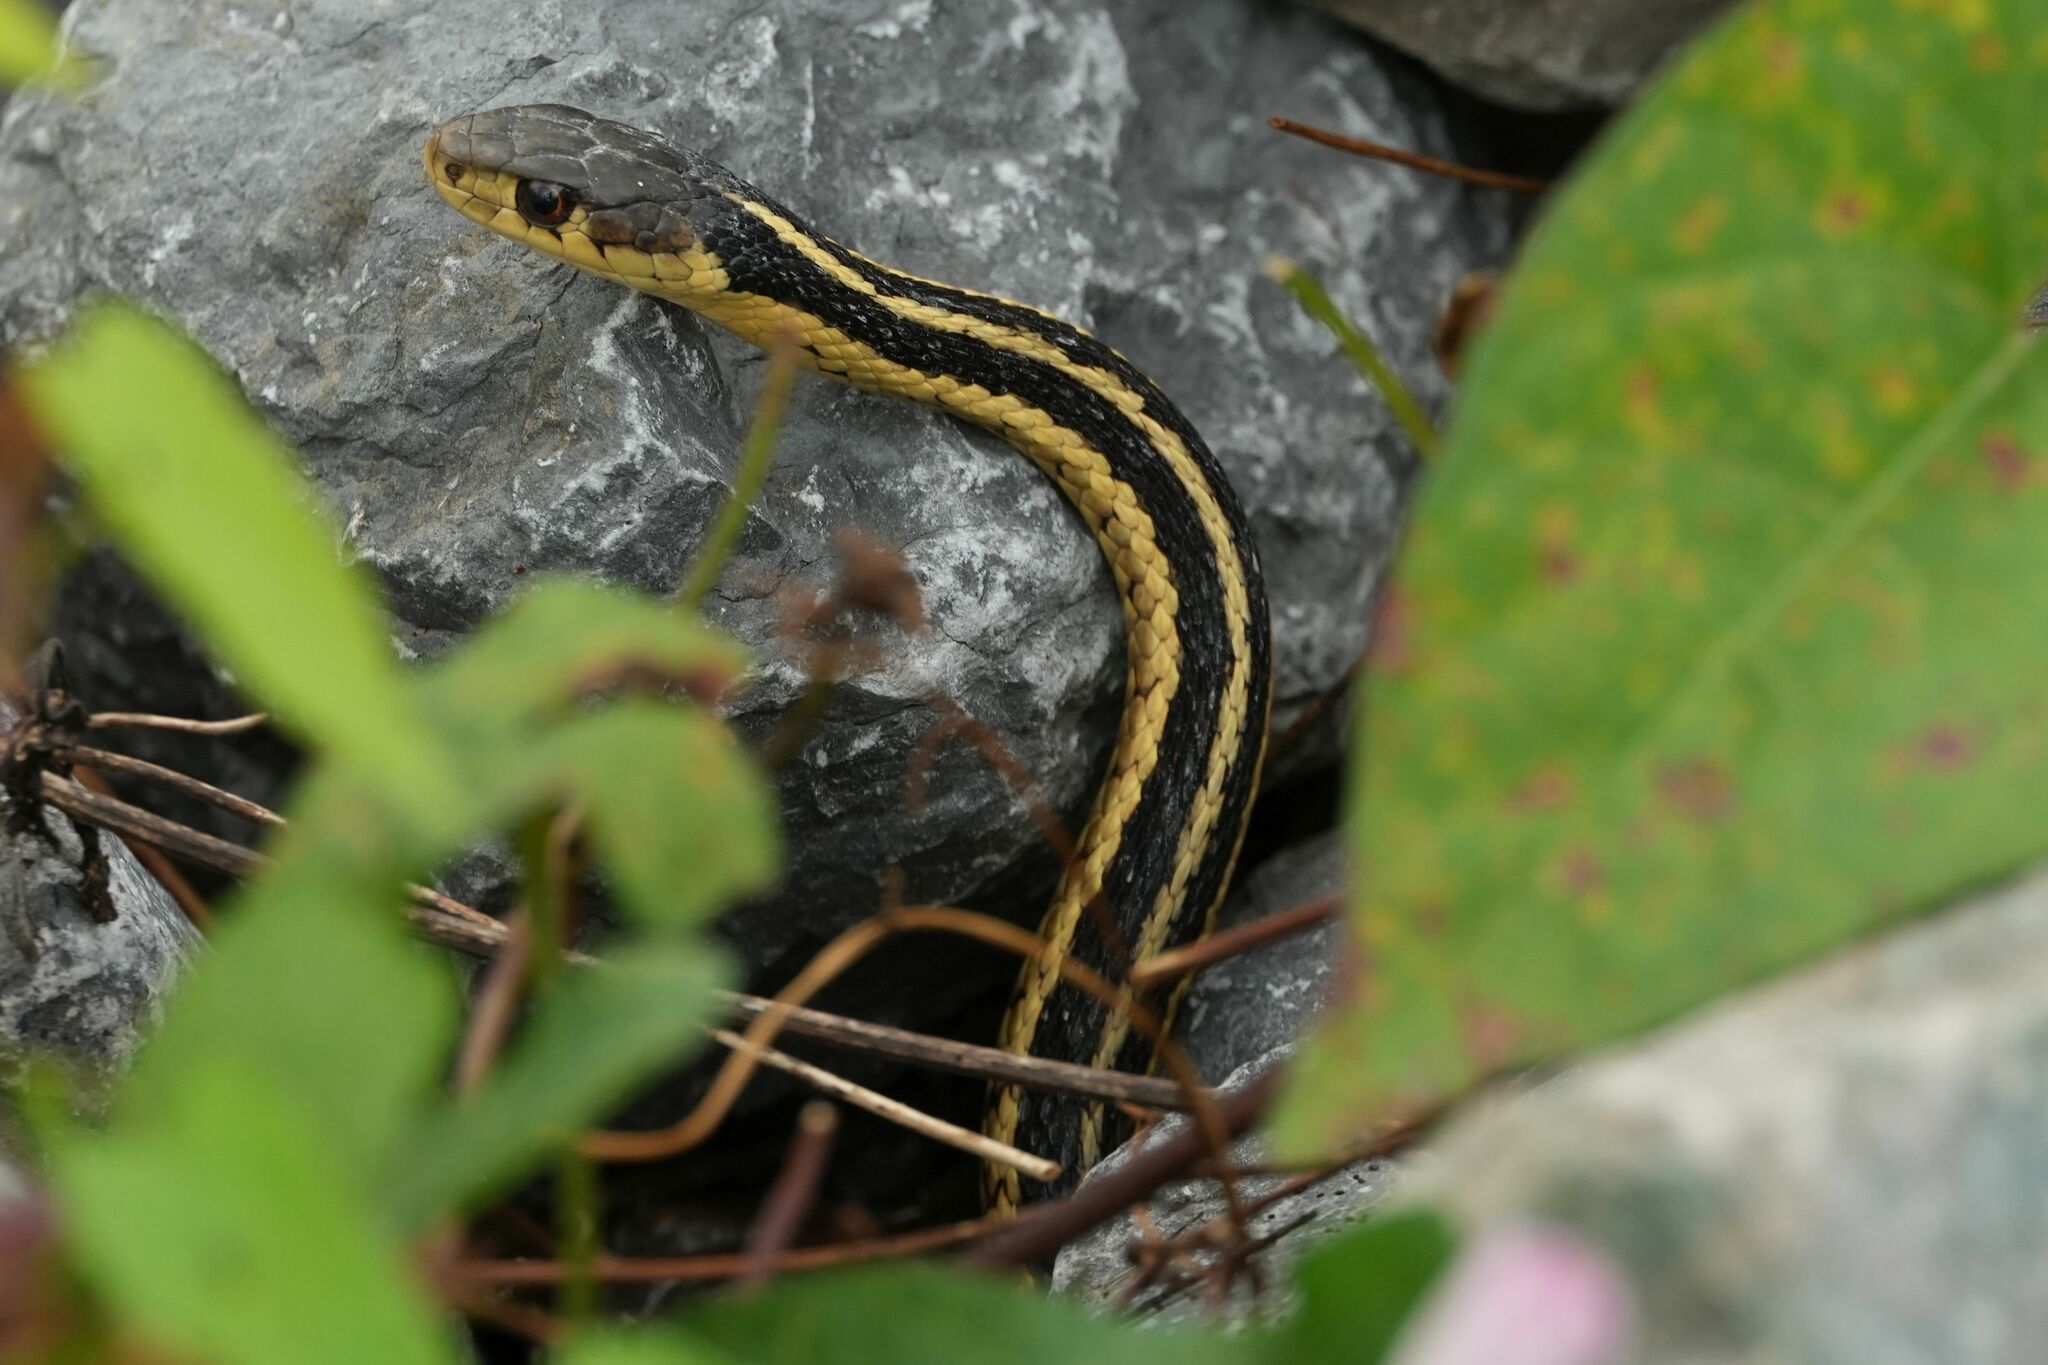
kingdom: Animalia
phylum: Chordata
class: Squamata
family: Colubridae
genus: Thamnophis
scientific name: Thamnophis sirtalis
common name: Common garter snake
